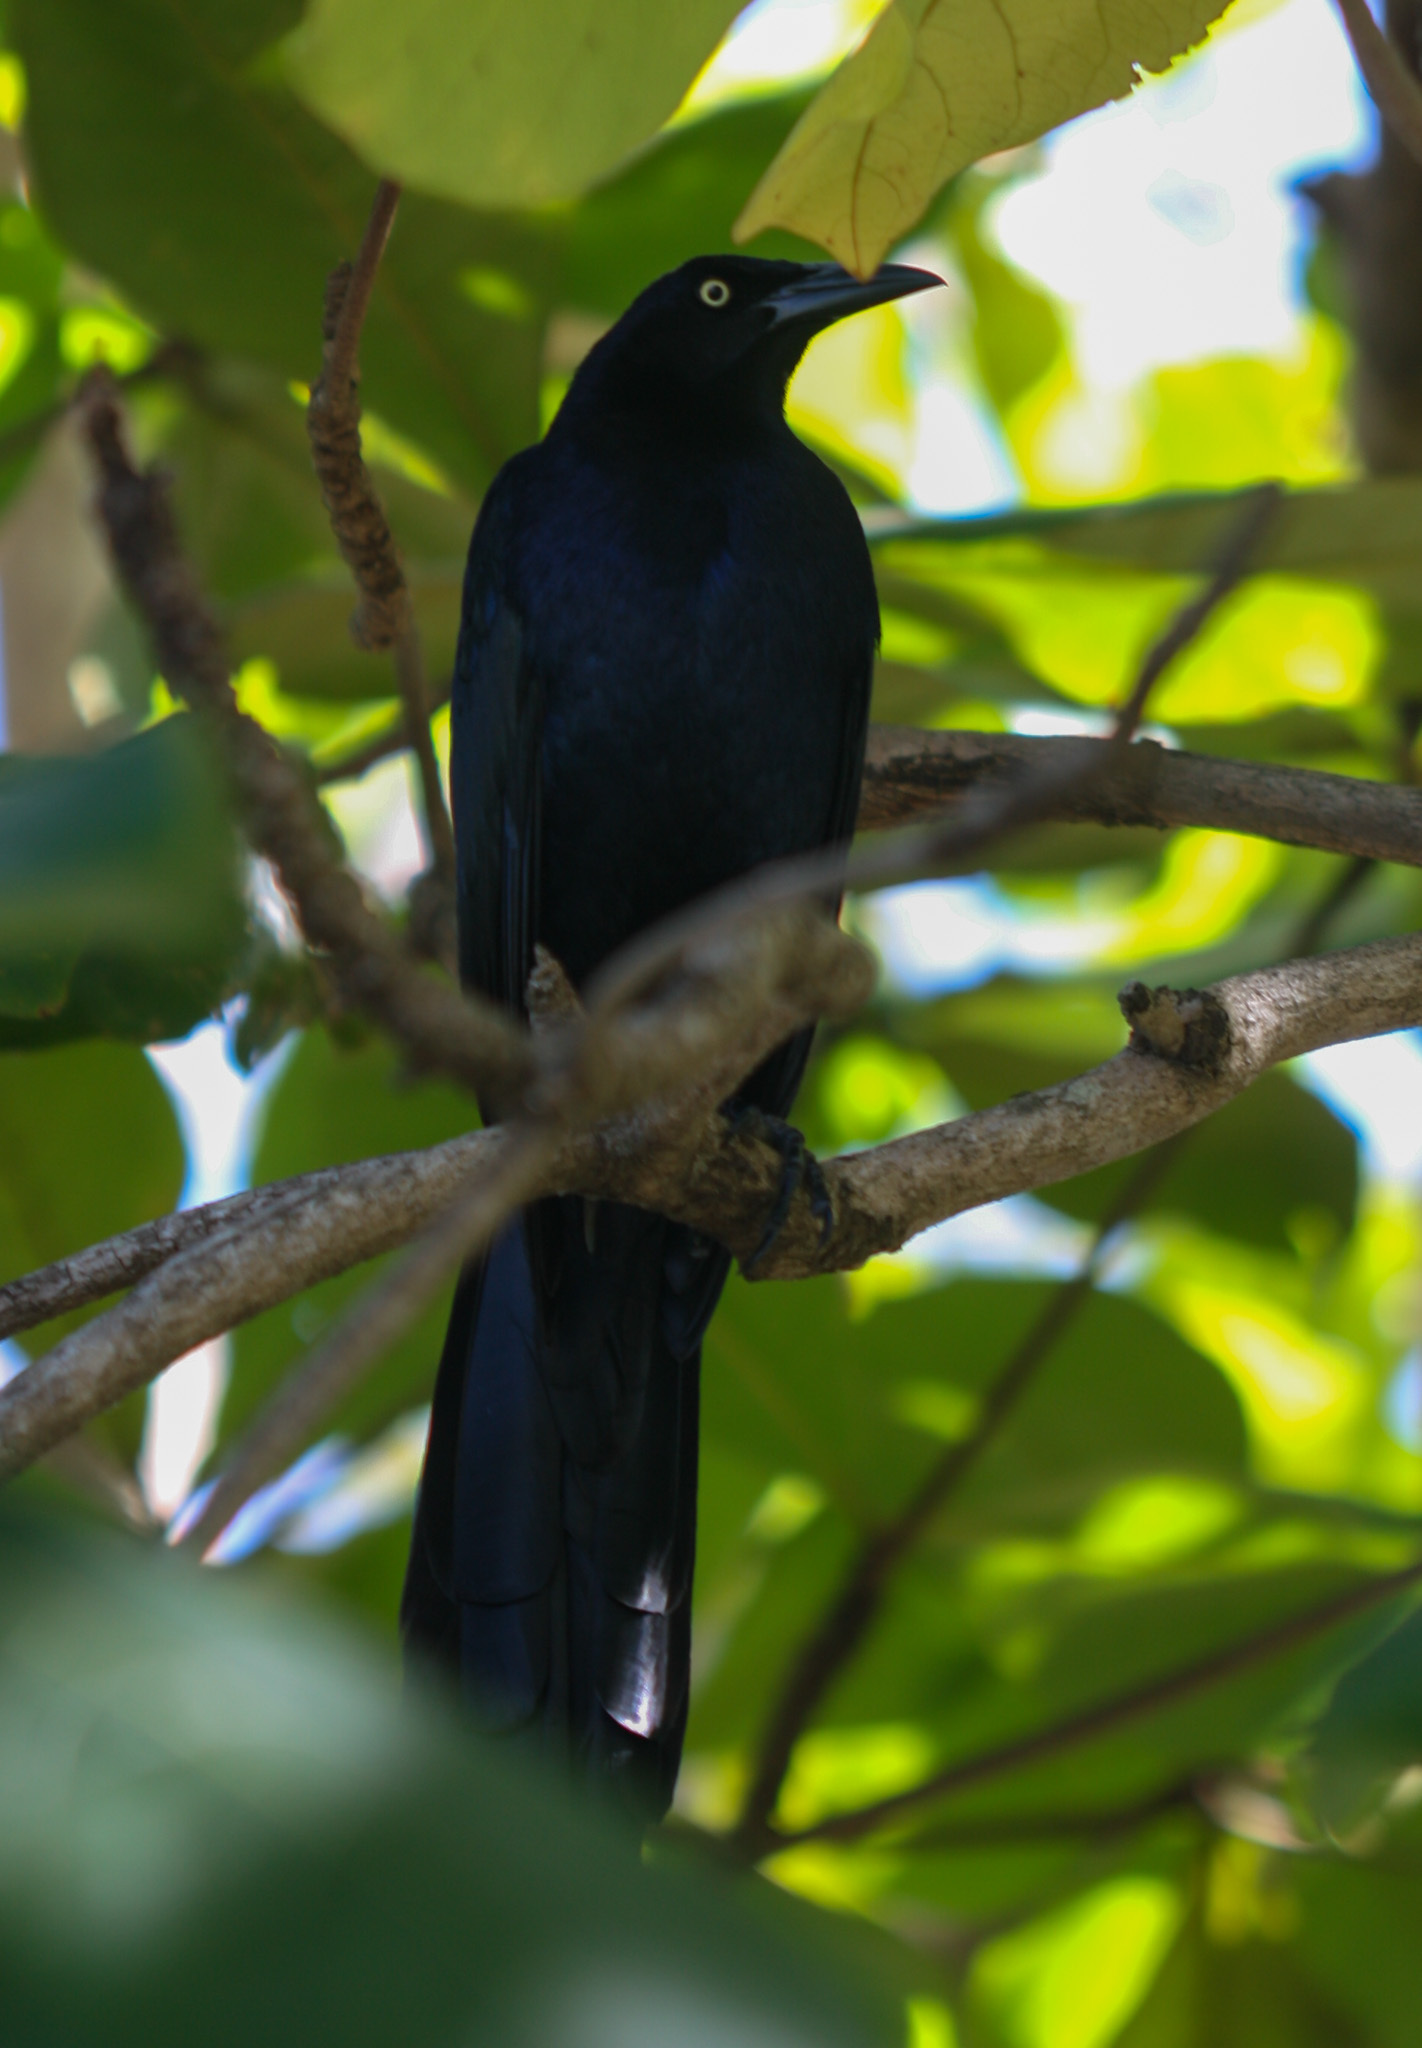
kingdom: Animalia
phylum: Chordata
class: Aves
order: Passeriformes
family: Icteridae
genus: Quiscalus
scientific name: Quiscalus mexicanus
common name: Great-tailed grackle
